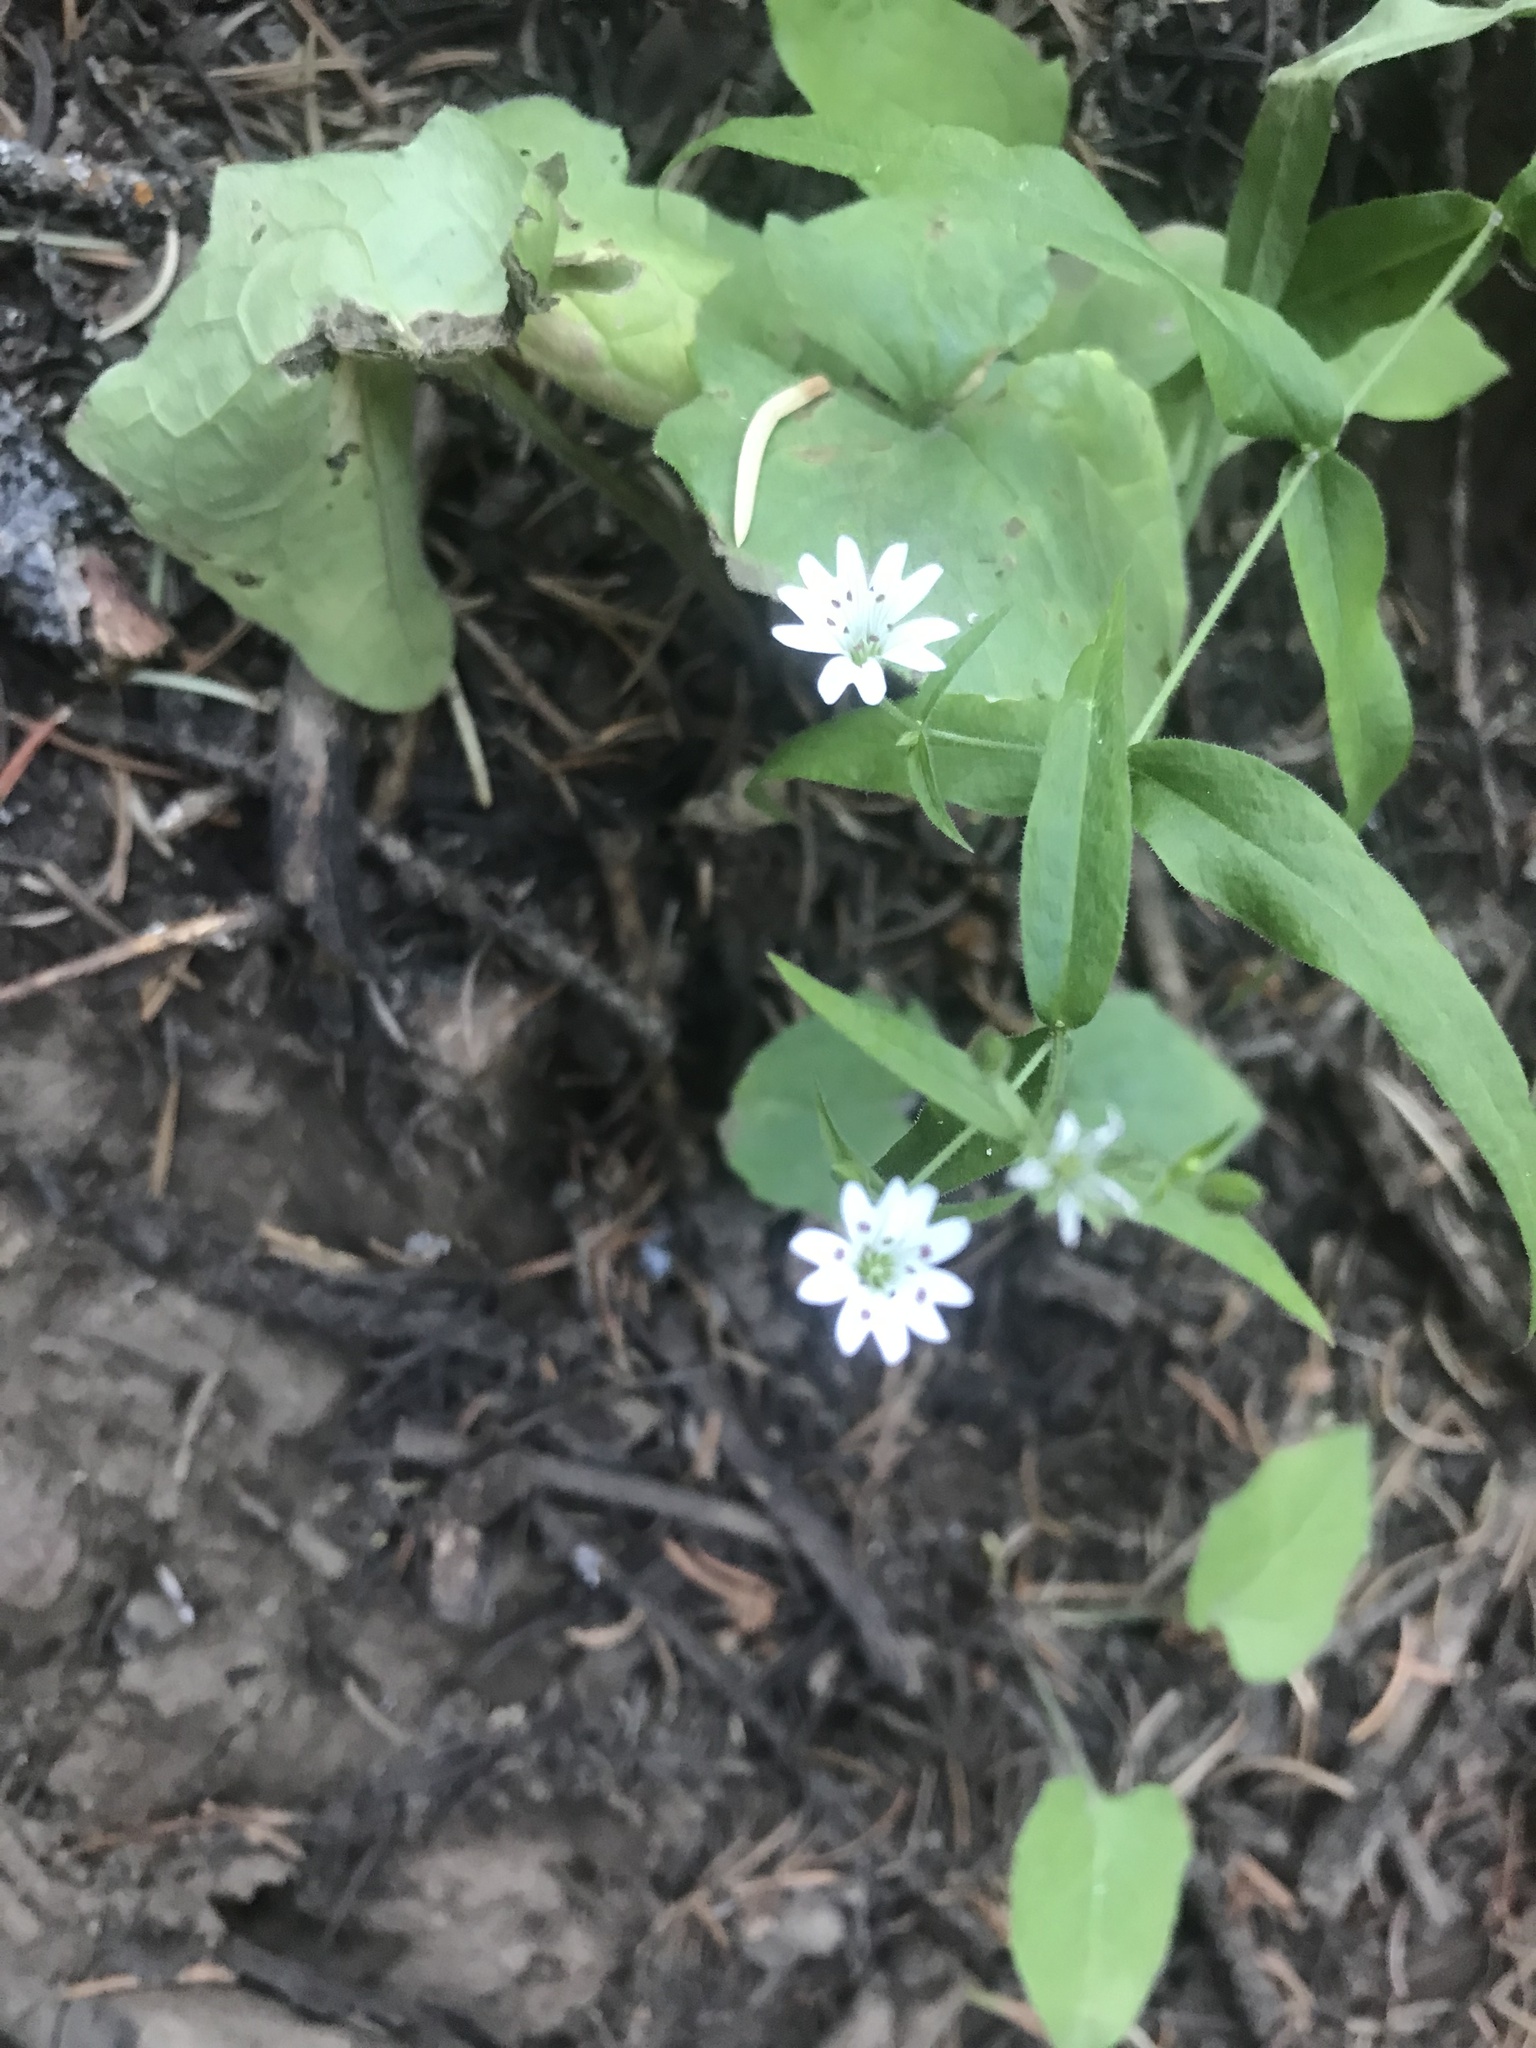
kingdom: Plantae
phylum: Tracheophyta
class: Magnoliopsida
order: Caryophyllales
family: Caryophyllaceae
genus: Schizotechium
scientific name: Schizotechium jamesianum
